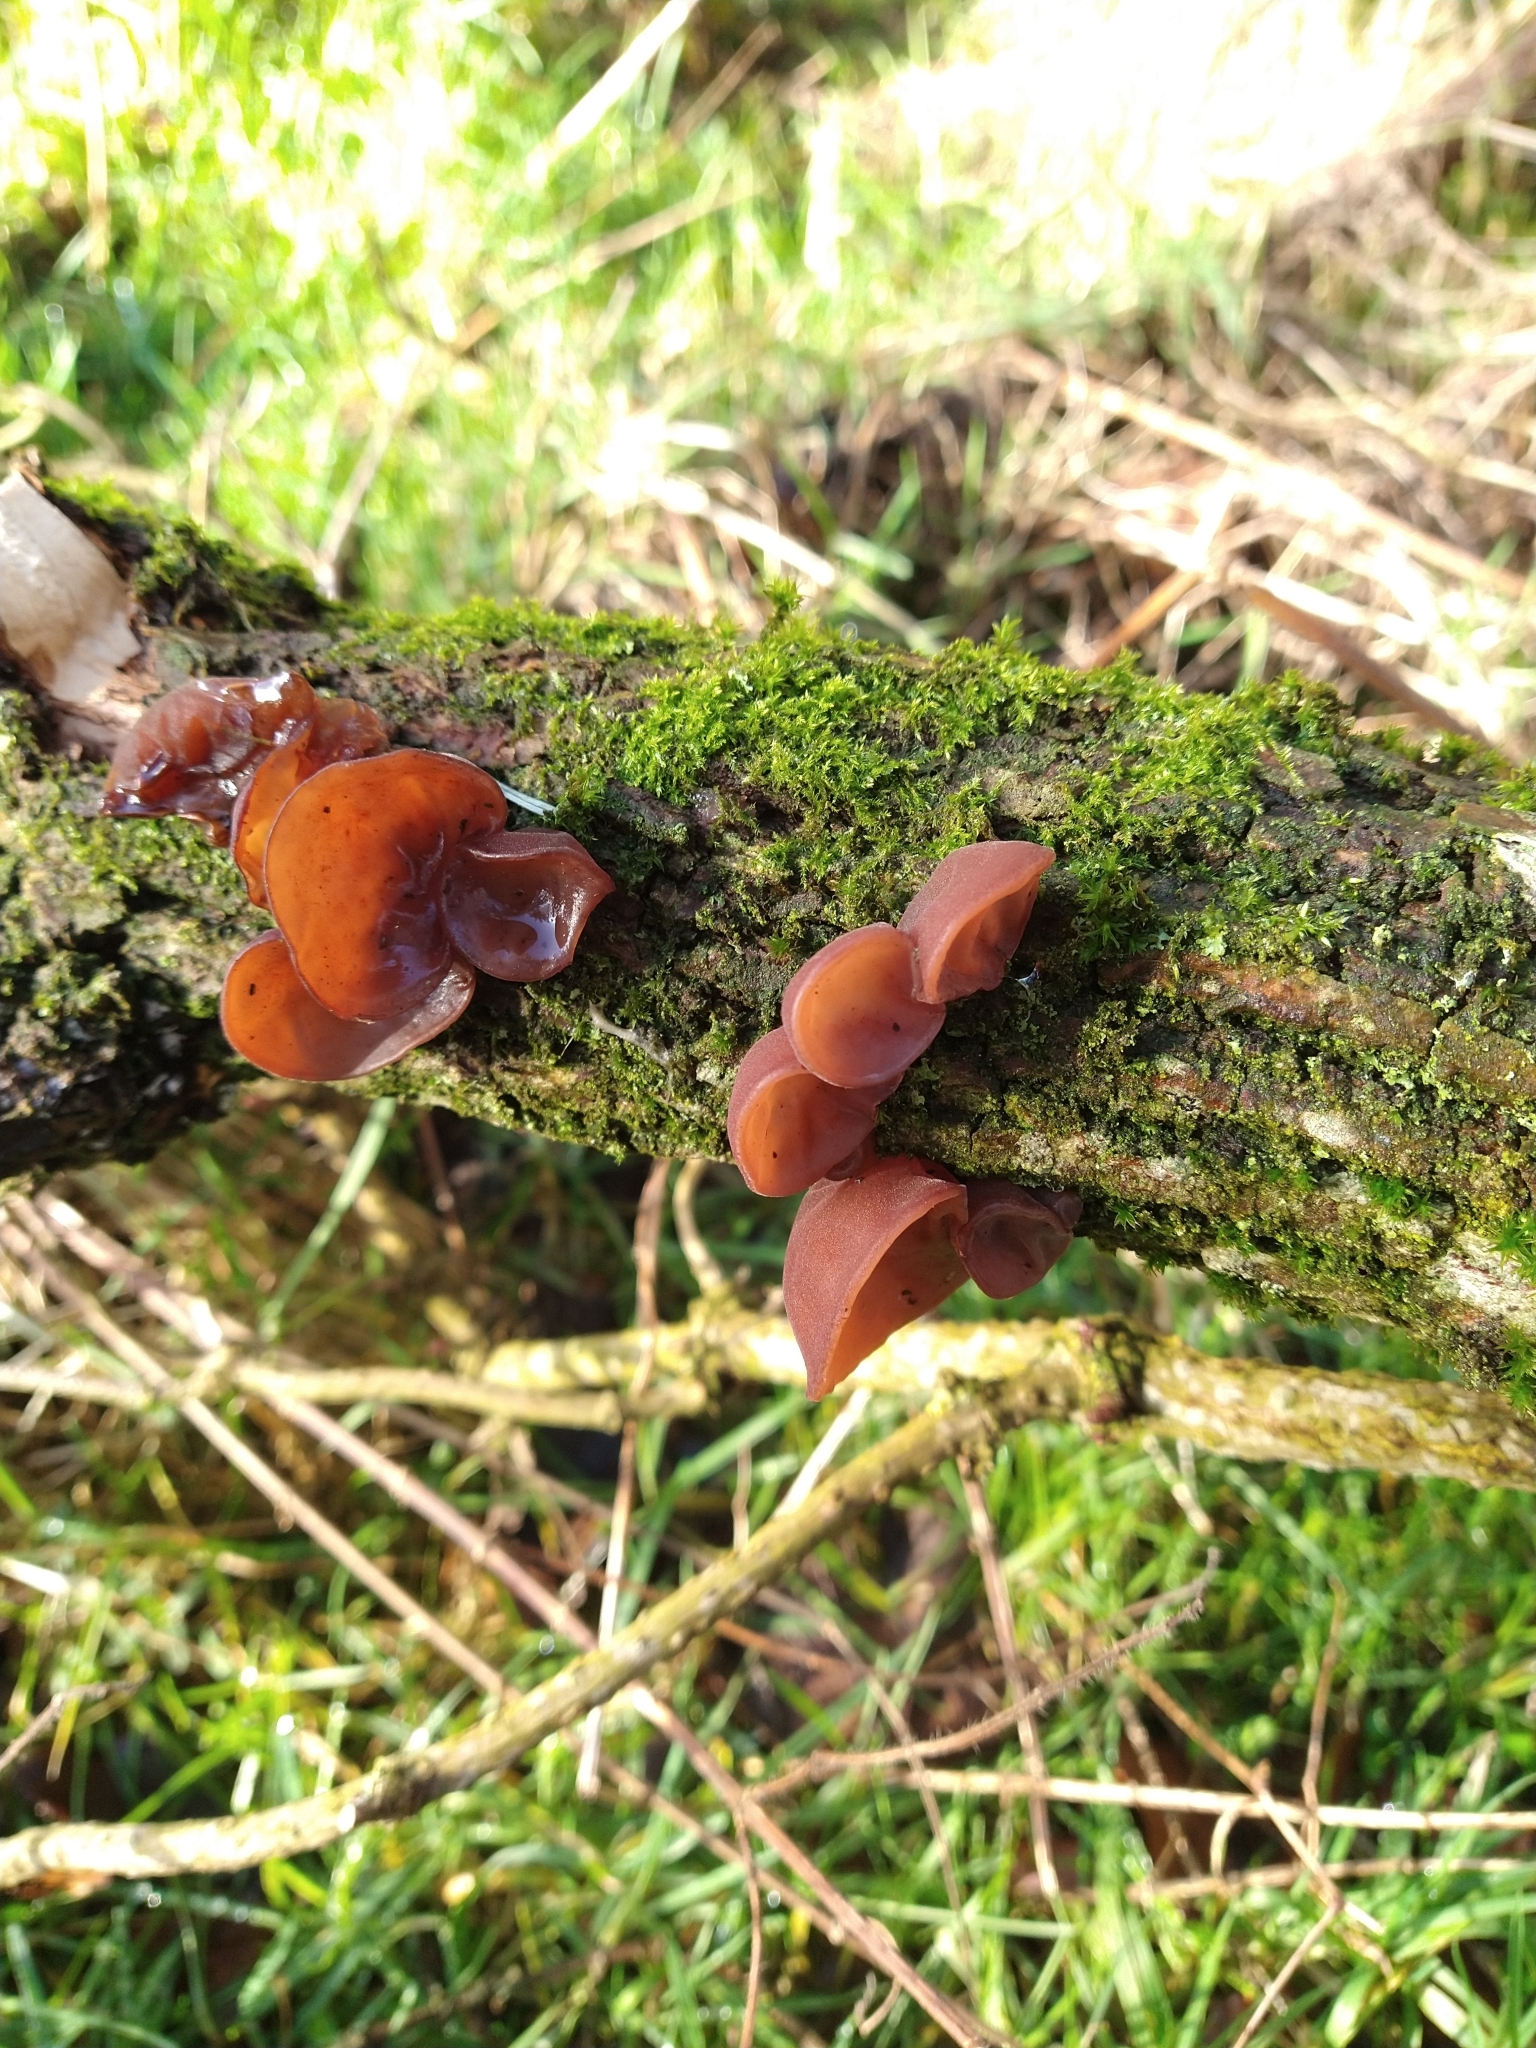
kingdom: Fungi
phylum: Basidiomycota
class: Agaricomycetes
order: Auriculariales
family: Auriculariaceae
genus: Auricularia
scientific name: Auricularia auricula-judae
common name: Jelly ear
